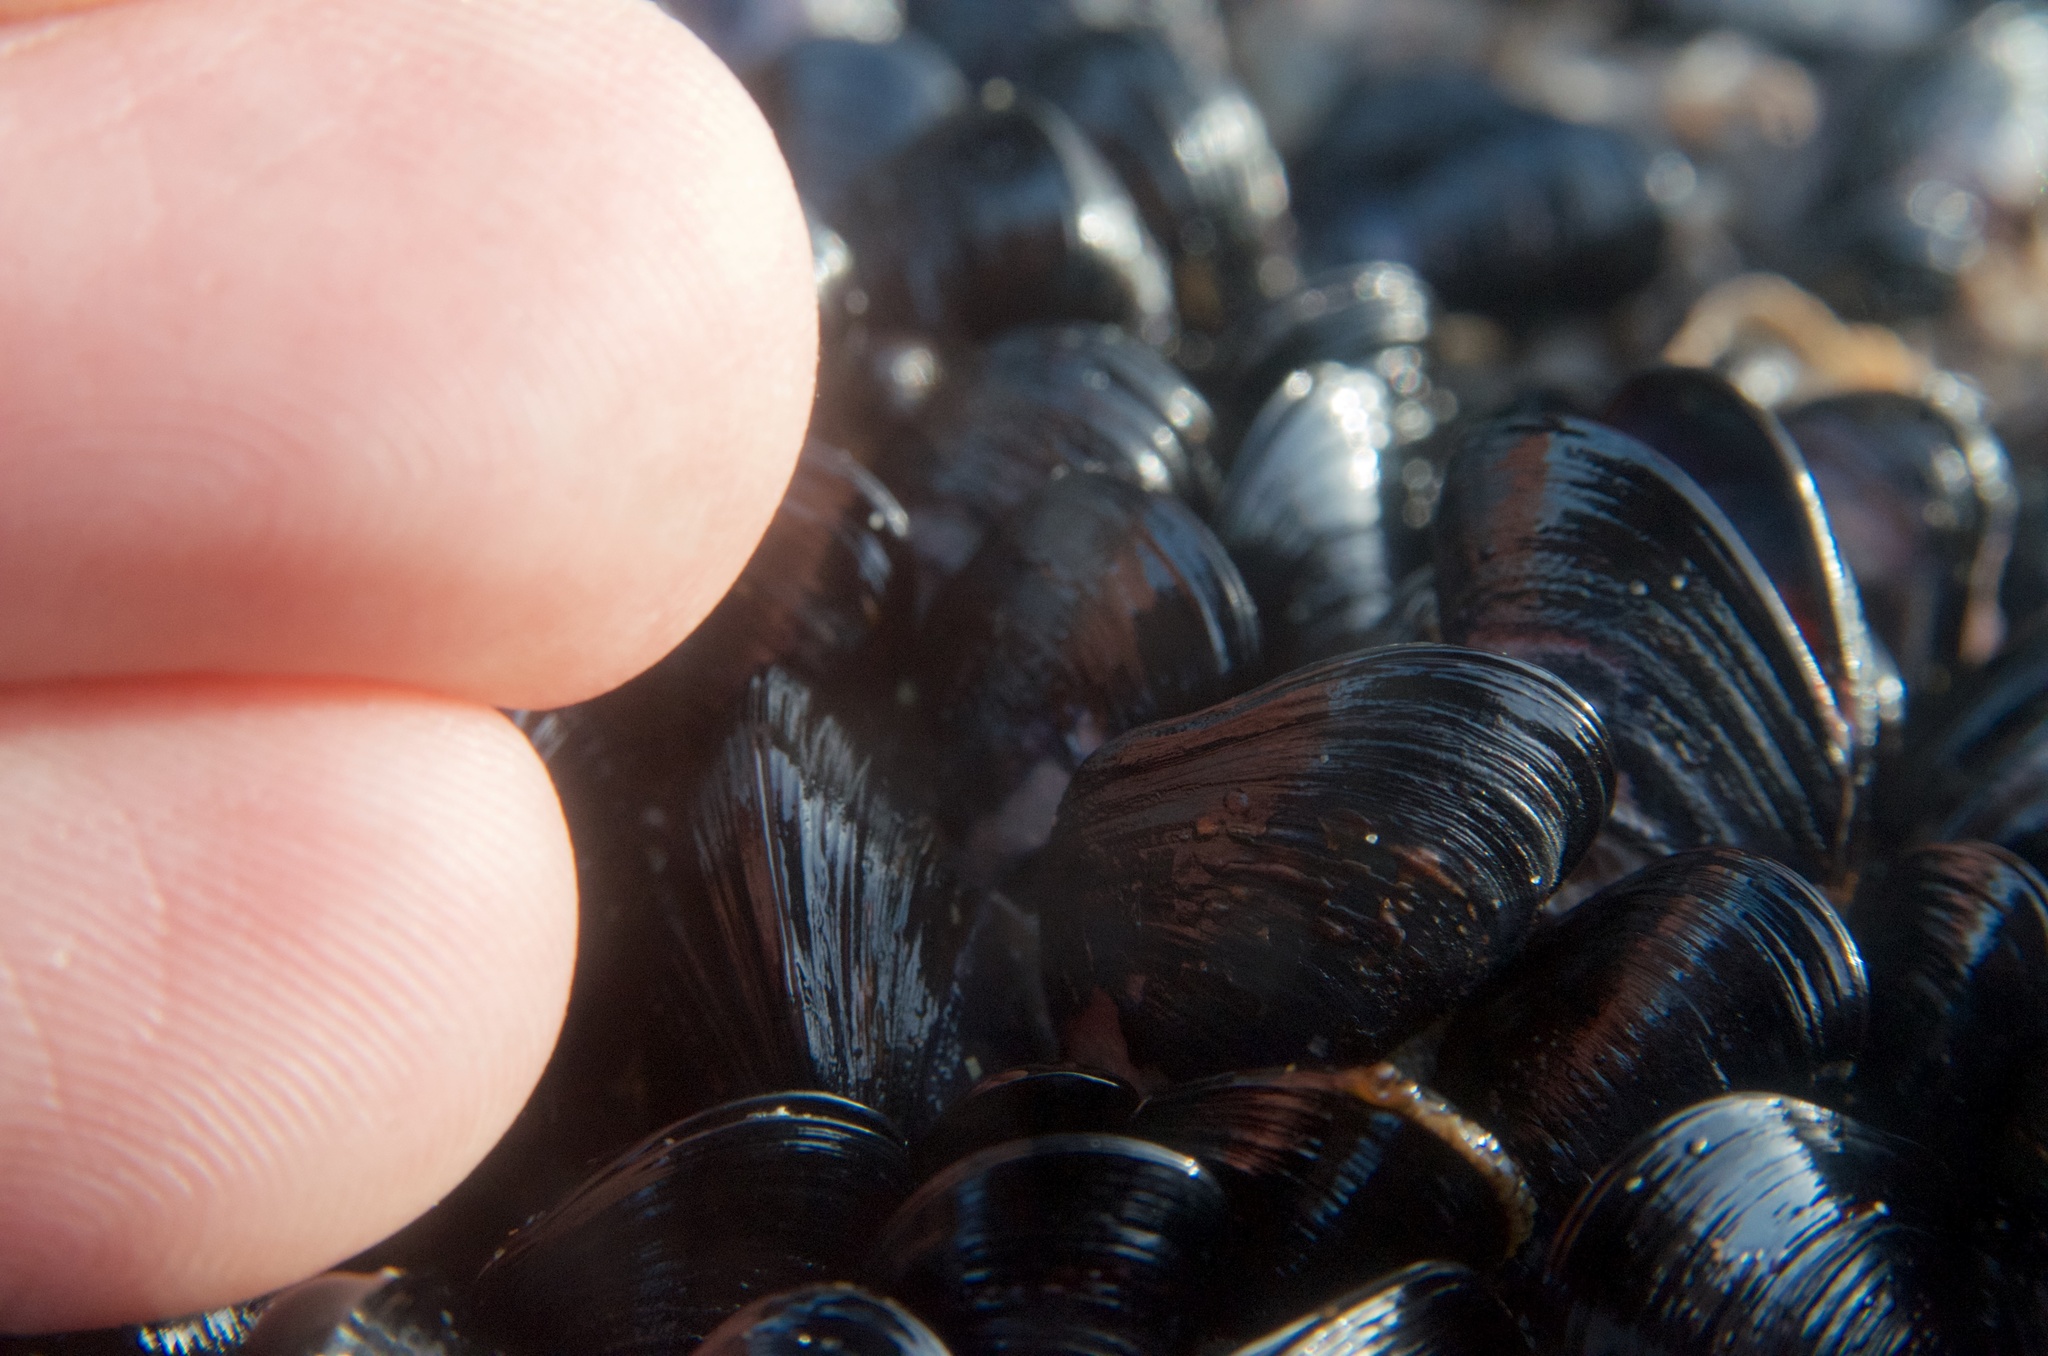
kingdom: Animalia
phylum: Mollusca
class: Bivalvia
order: Mytilida
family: Mytilidae
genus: Xenostrobus
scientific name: Xenostrobus neozelanicus
